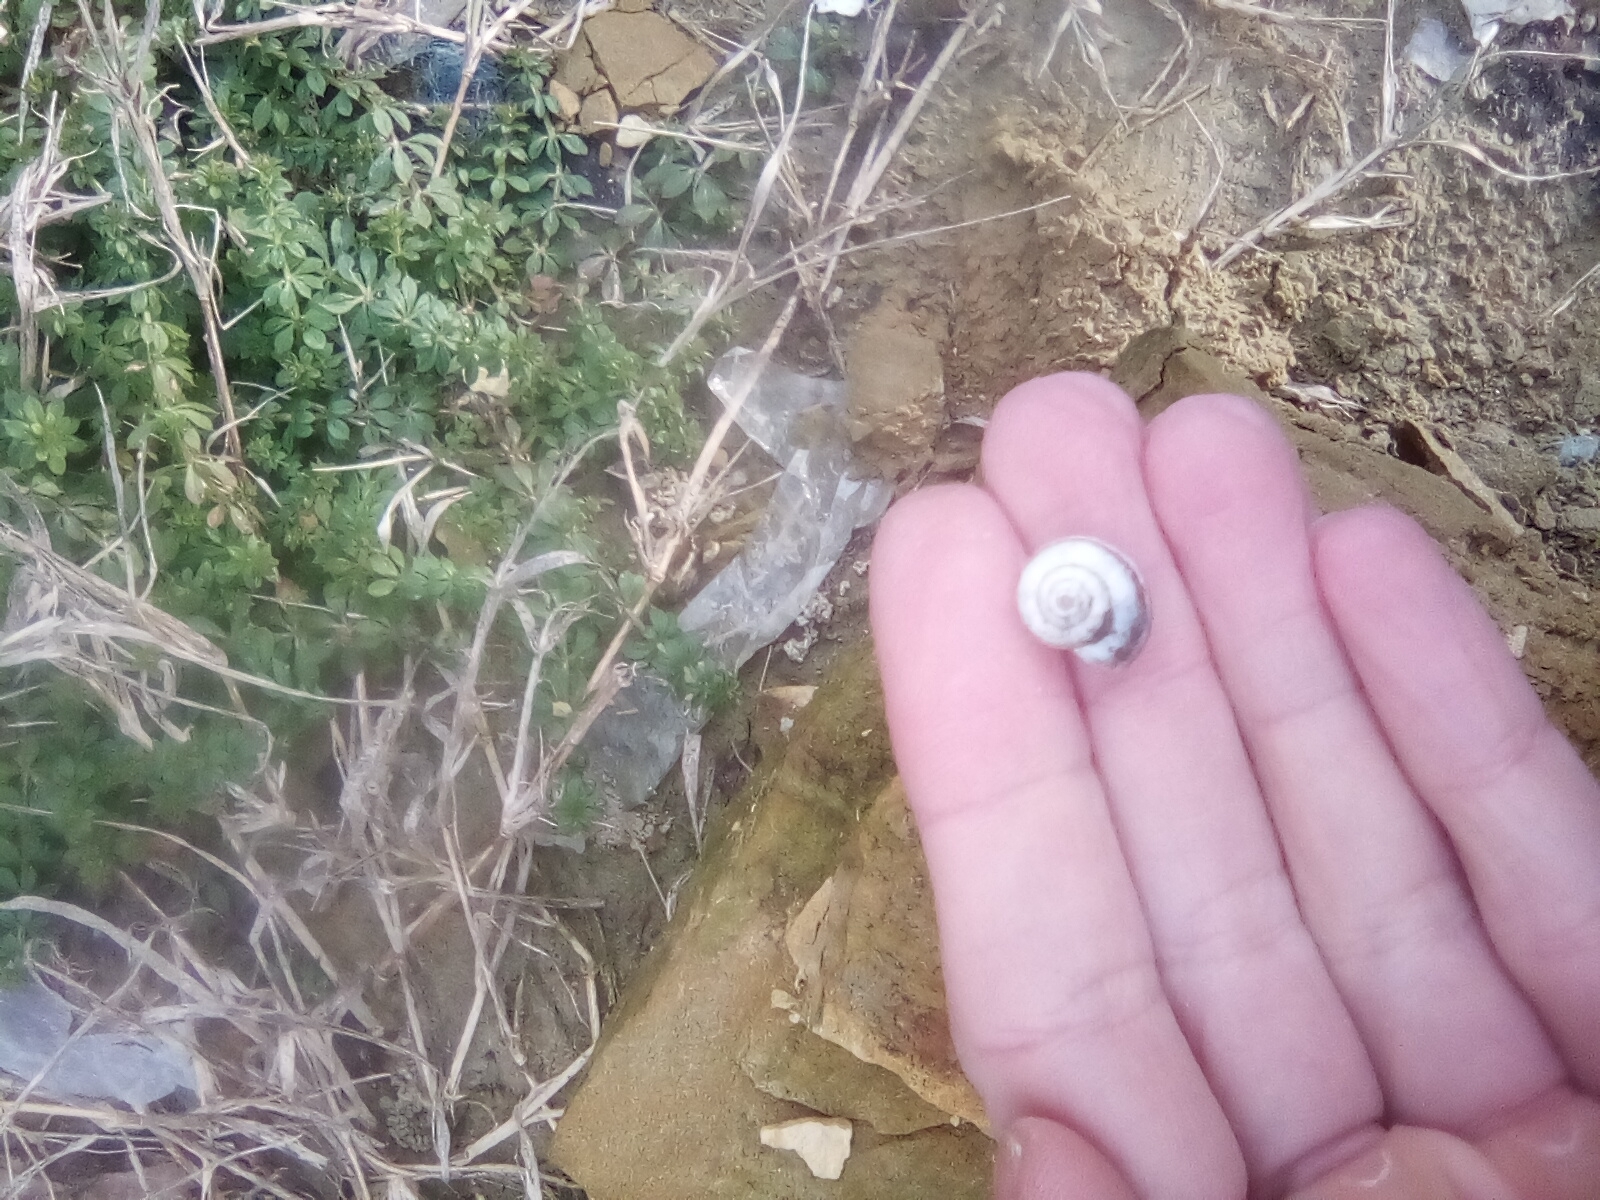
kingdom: Animalia
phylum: Mollusca
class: Gastropoda
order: Stylommatophora
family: Geomitridae
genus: Xeropicta
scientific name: Xeropicta krynickii
